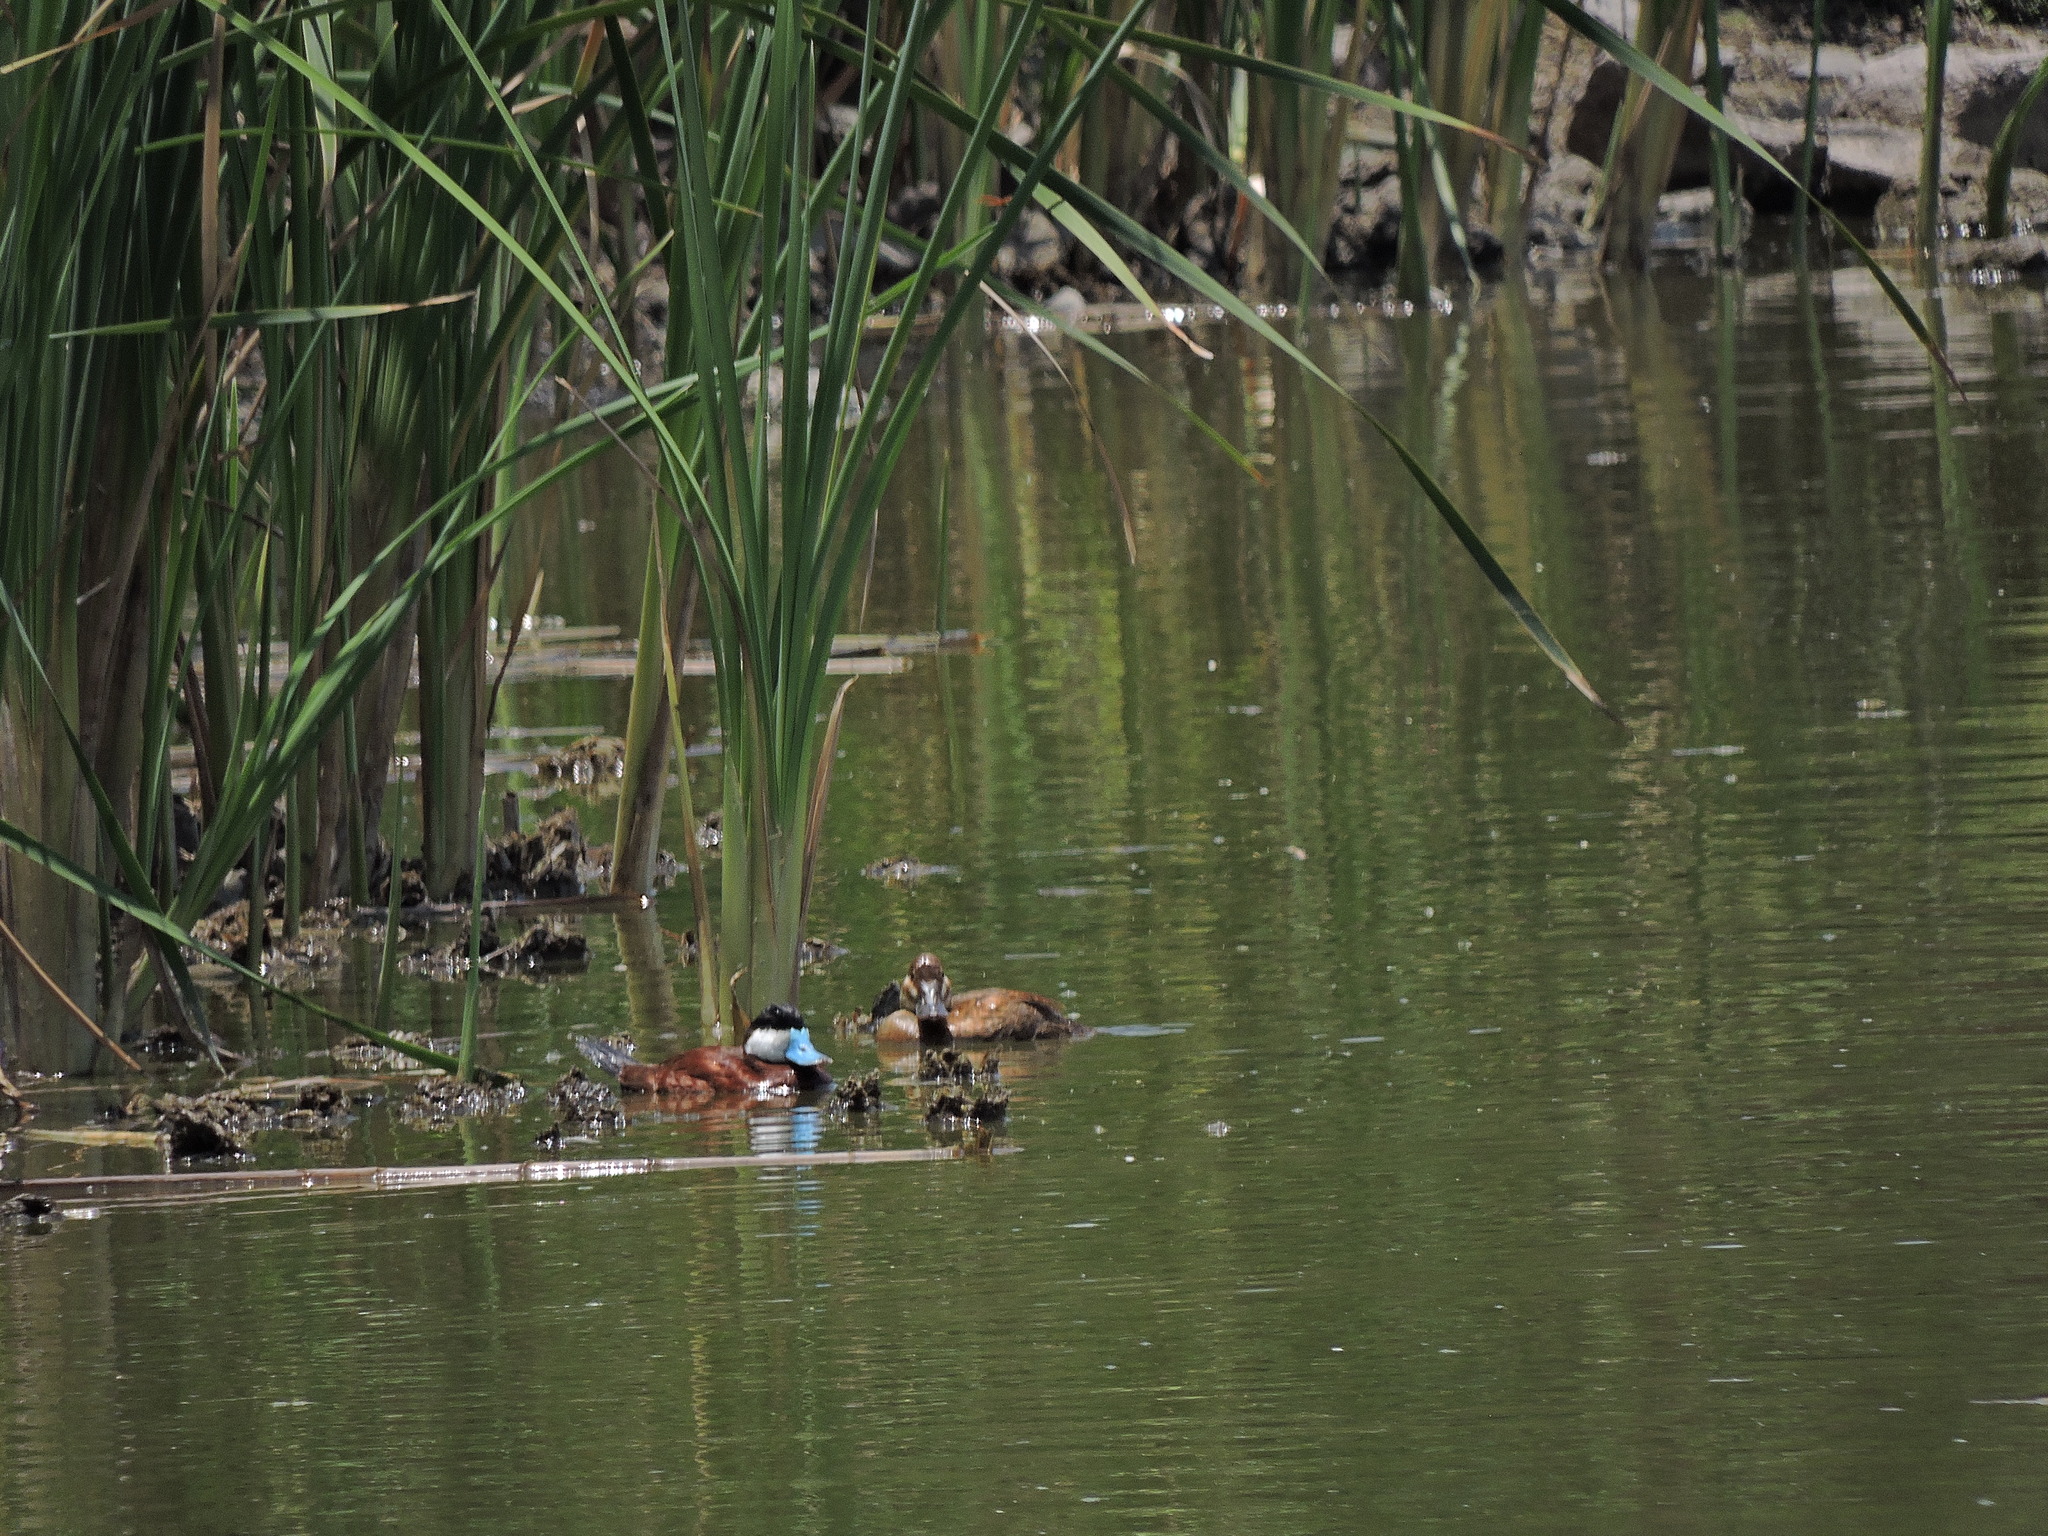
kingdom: Animalia
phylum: Chordata
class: Aves
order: Anseriformes
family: Anatidae
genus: Oxyura
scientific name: Oxyura jamaicensis
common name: Ruddy duck
